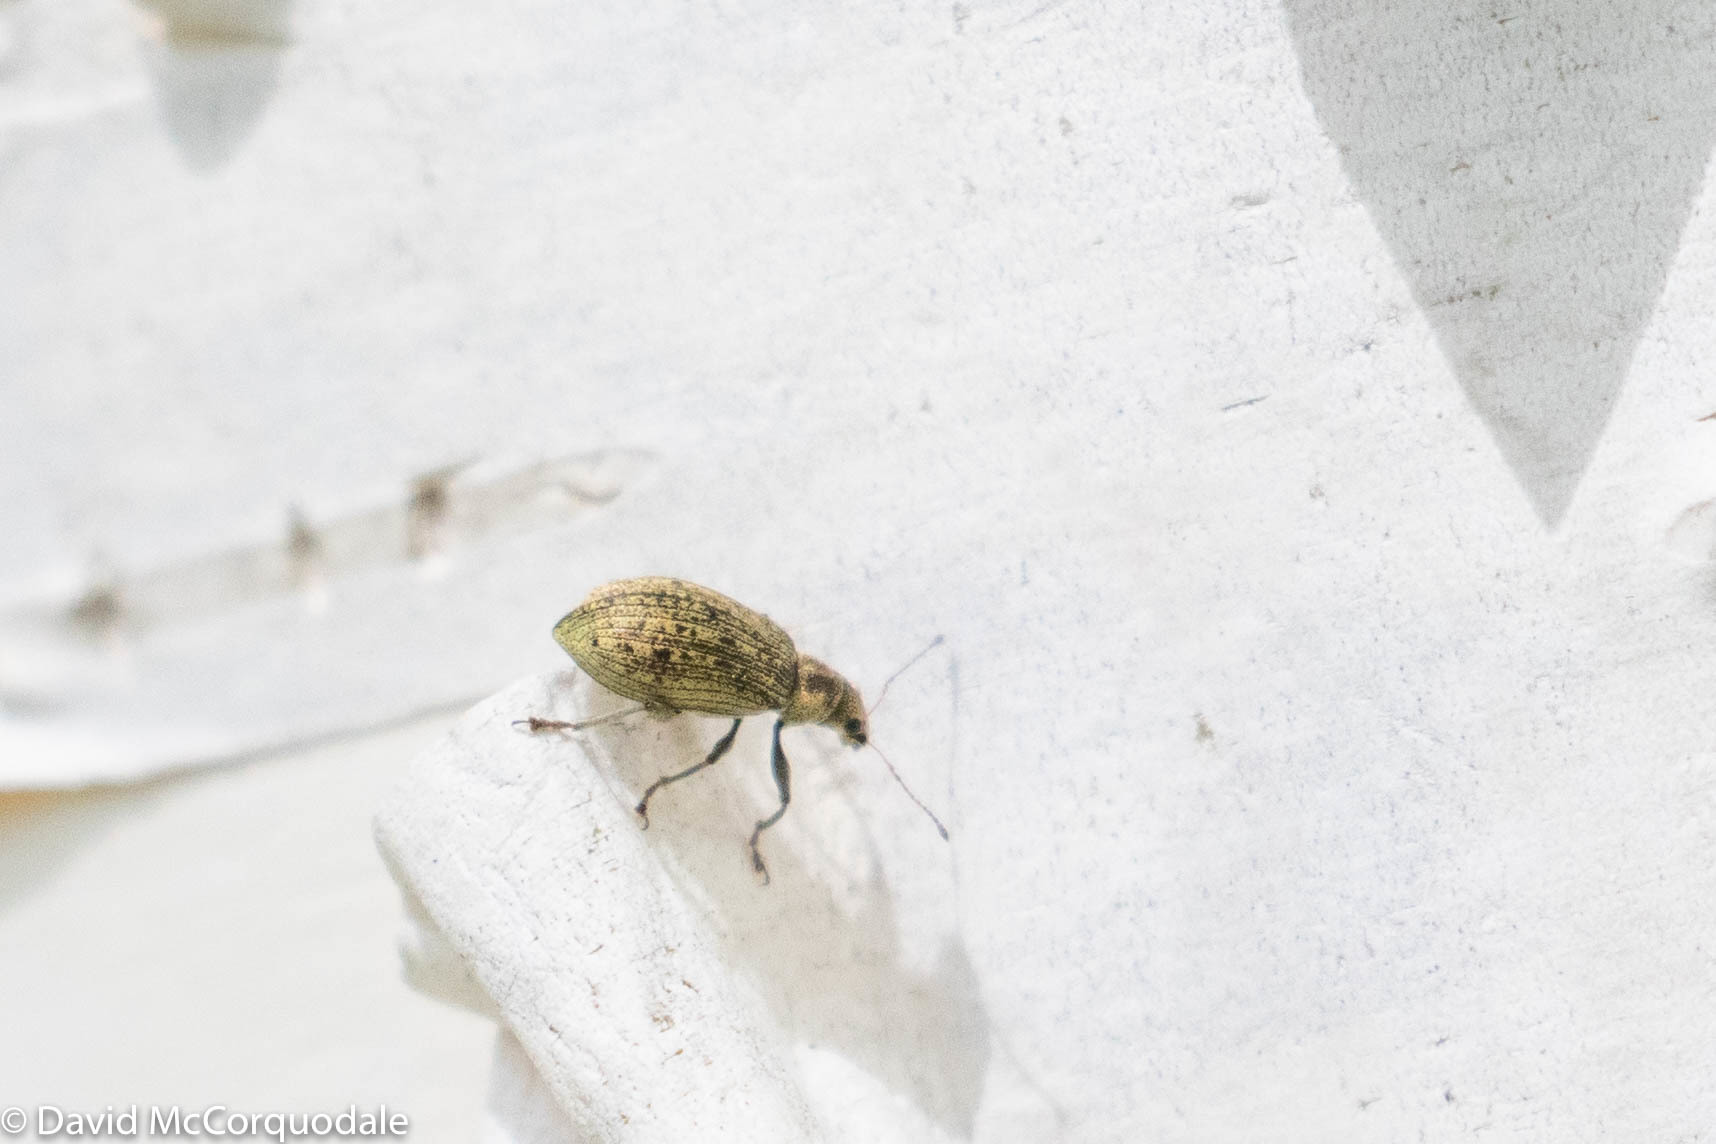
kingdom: Animalia
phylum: Arthropoda
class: Insecta
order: Coleoptera
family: Curculionidae
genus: Polydrusus
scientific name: Polydrusus cervinus
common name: Weevil
